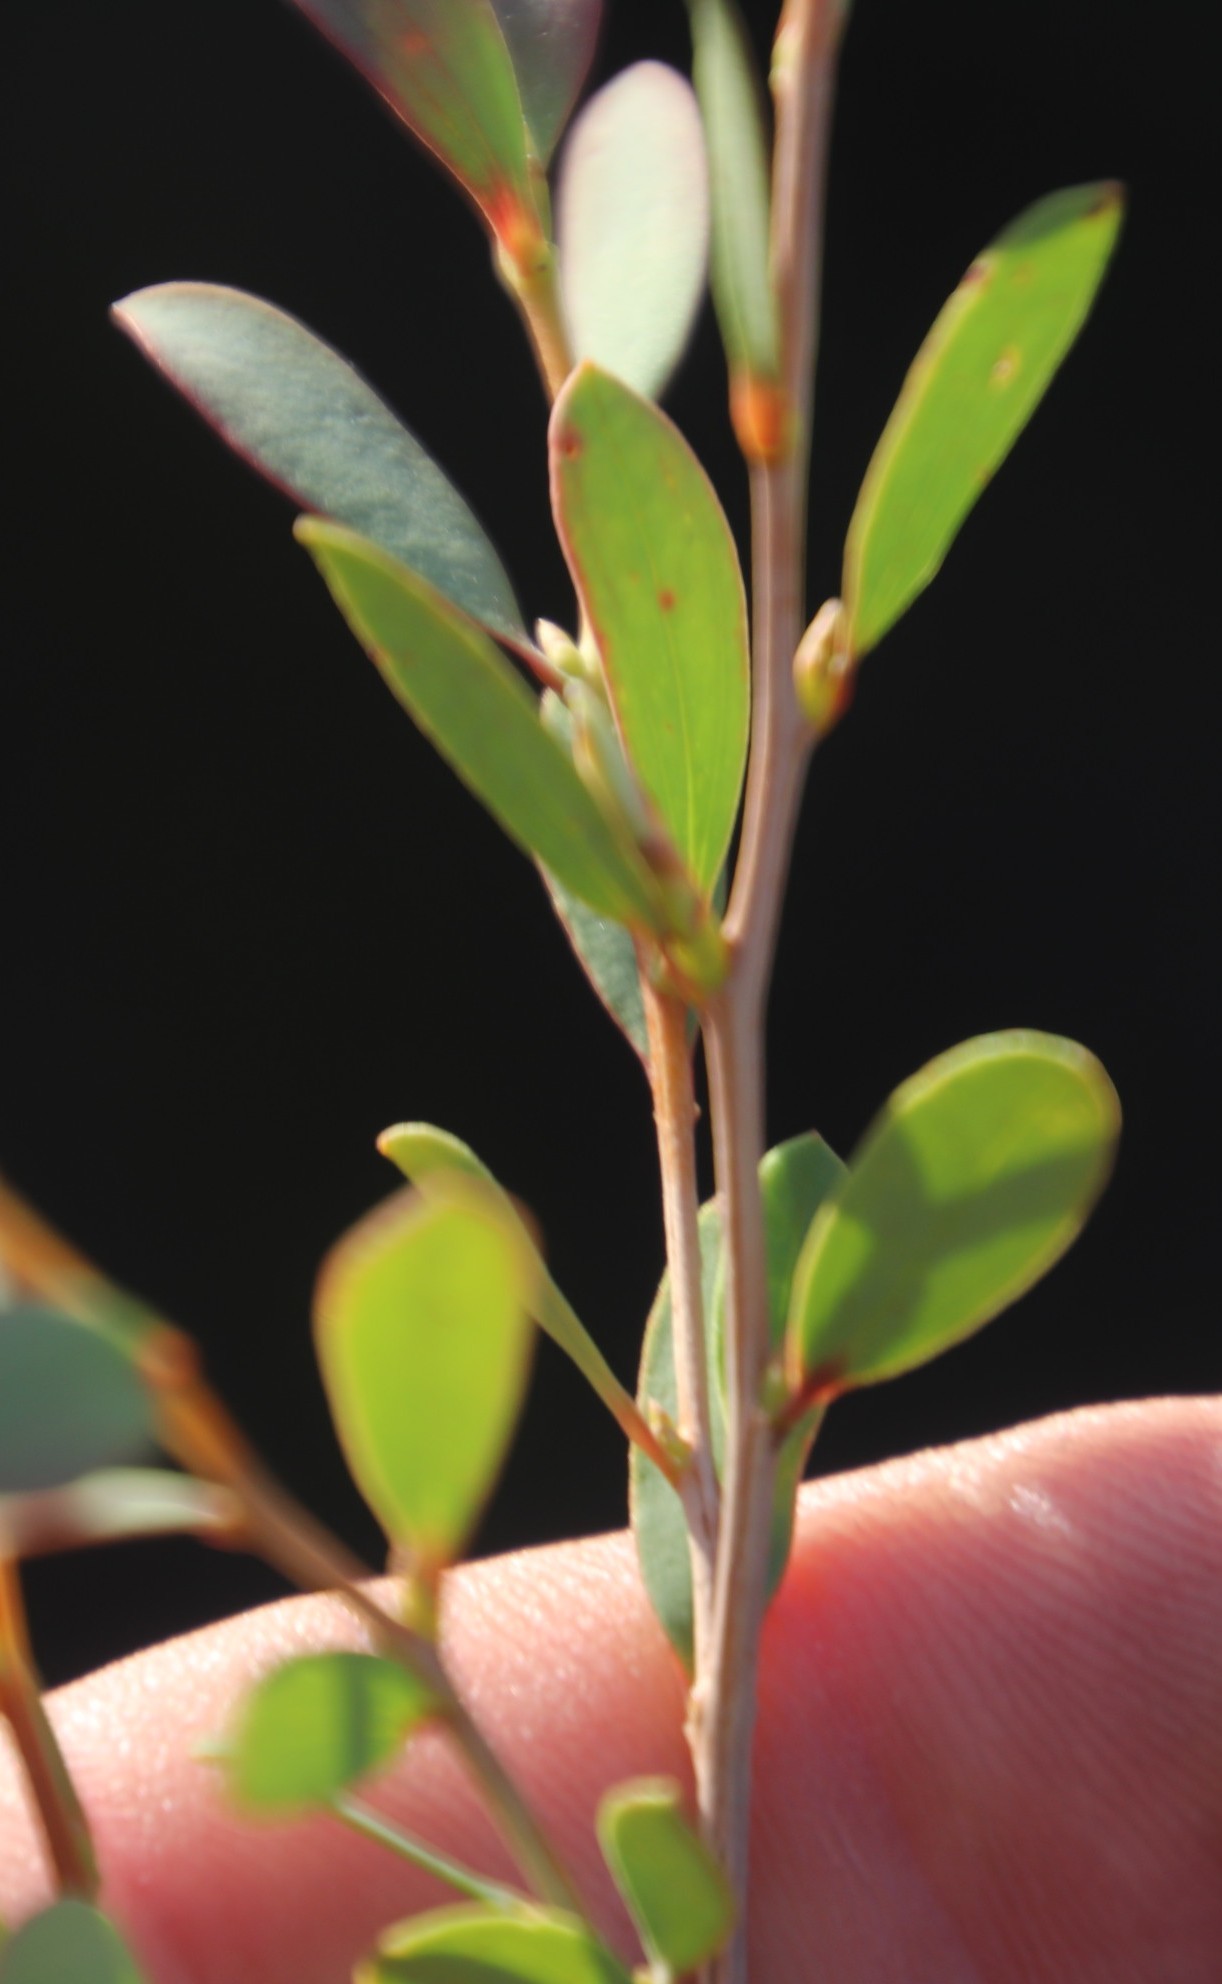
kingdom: Plantae
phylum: Tracheophyta
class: Magnoliopsida
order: Myrtales
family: Myrtaceae
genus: Leptospermum
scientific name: Leptospermum laevigatum
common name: Australian teatree
